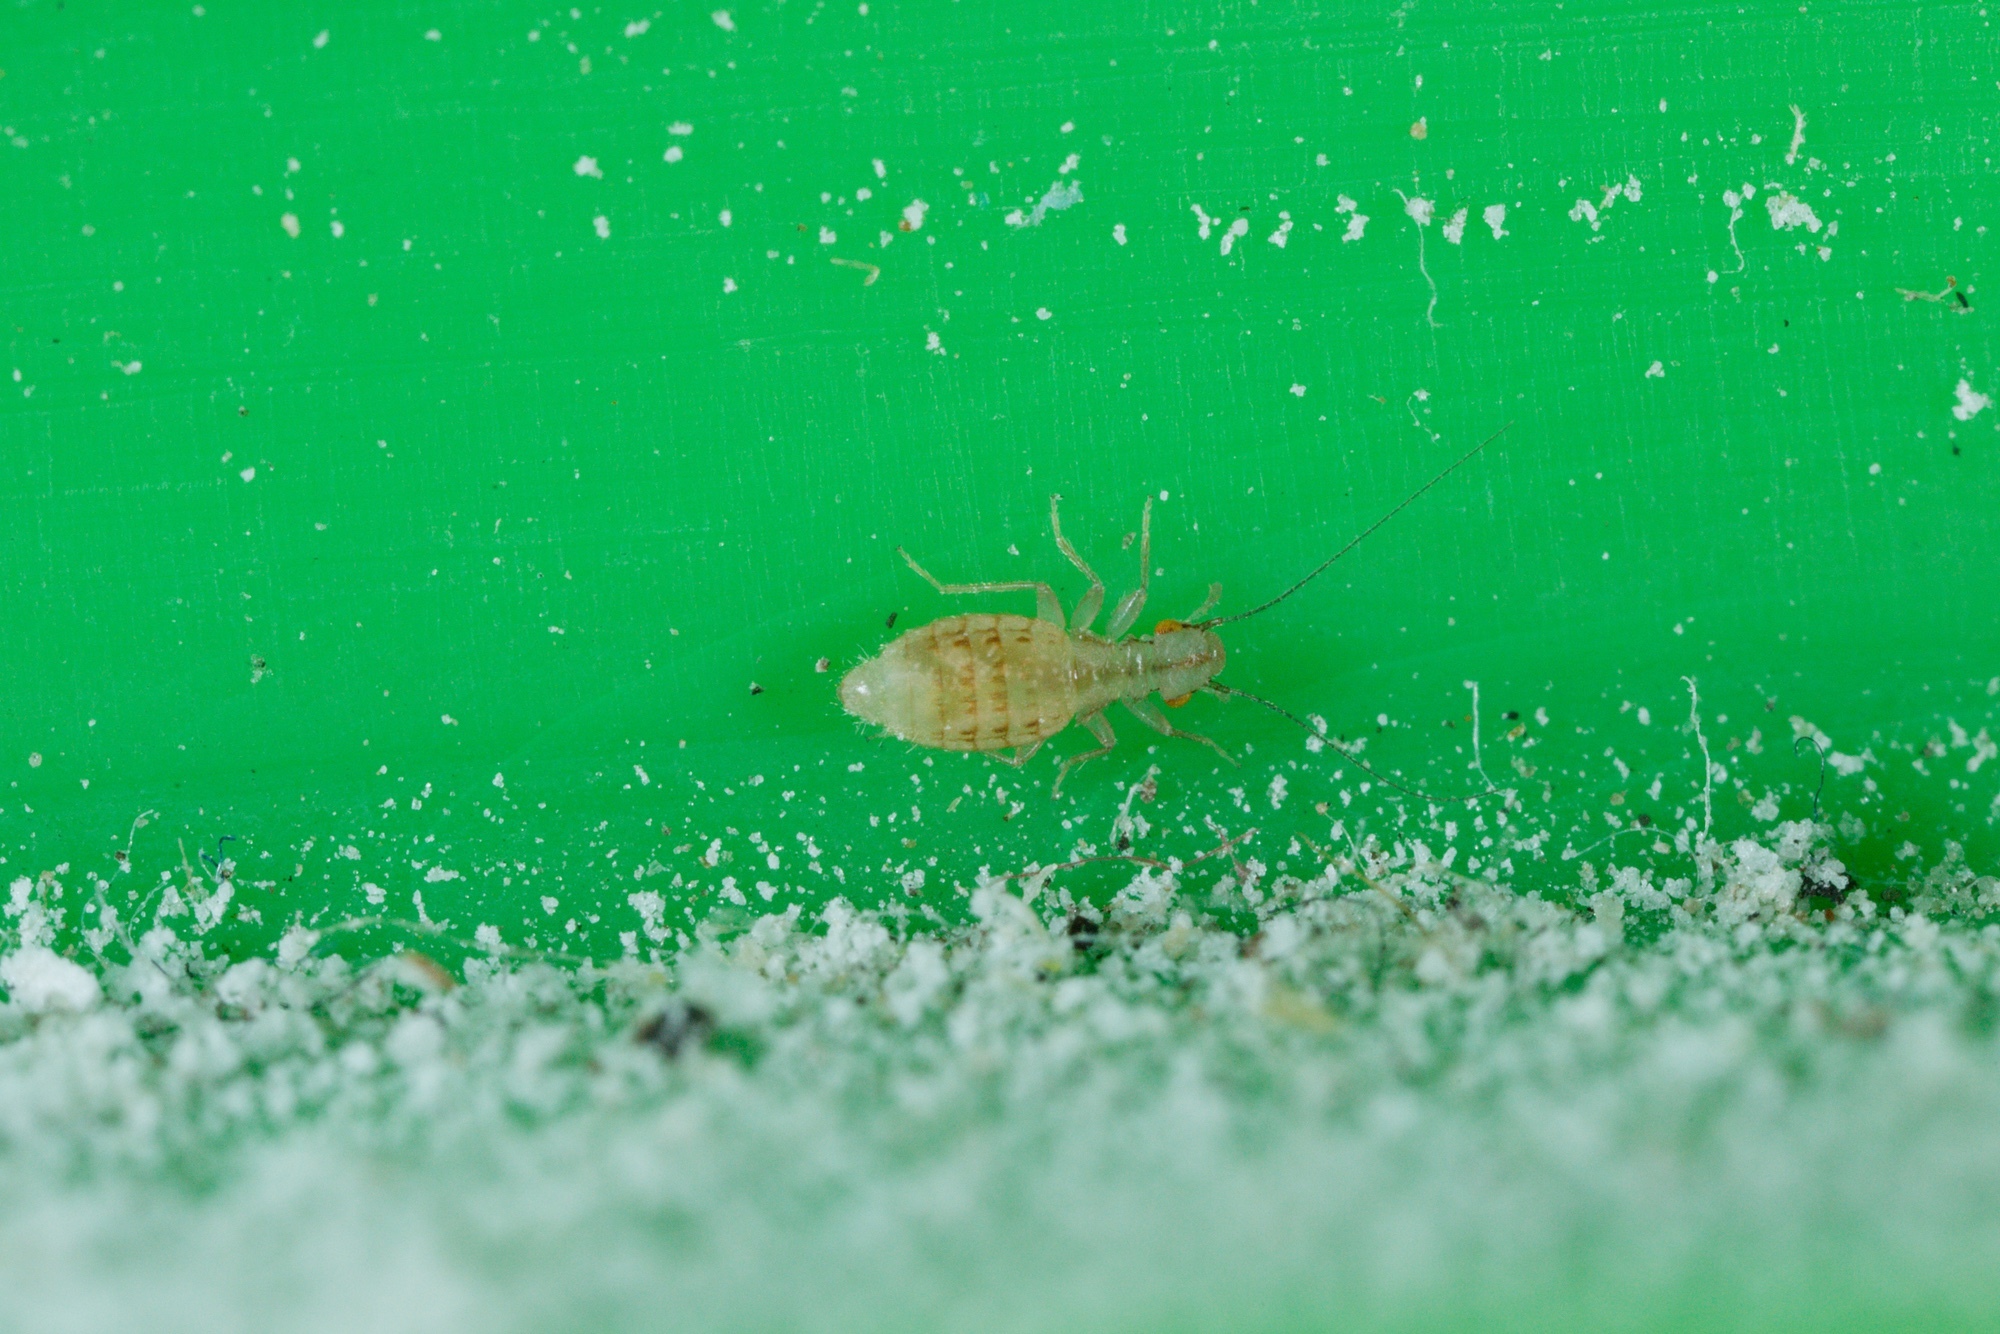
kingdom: Animalia
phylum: Arthropoda
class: Insecta
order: Psocodea
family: Trogiidae
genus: Trogium
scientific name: Trogium pulsatorium
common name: Granary book louse
